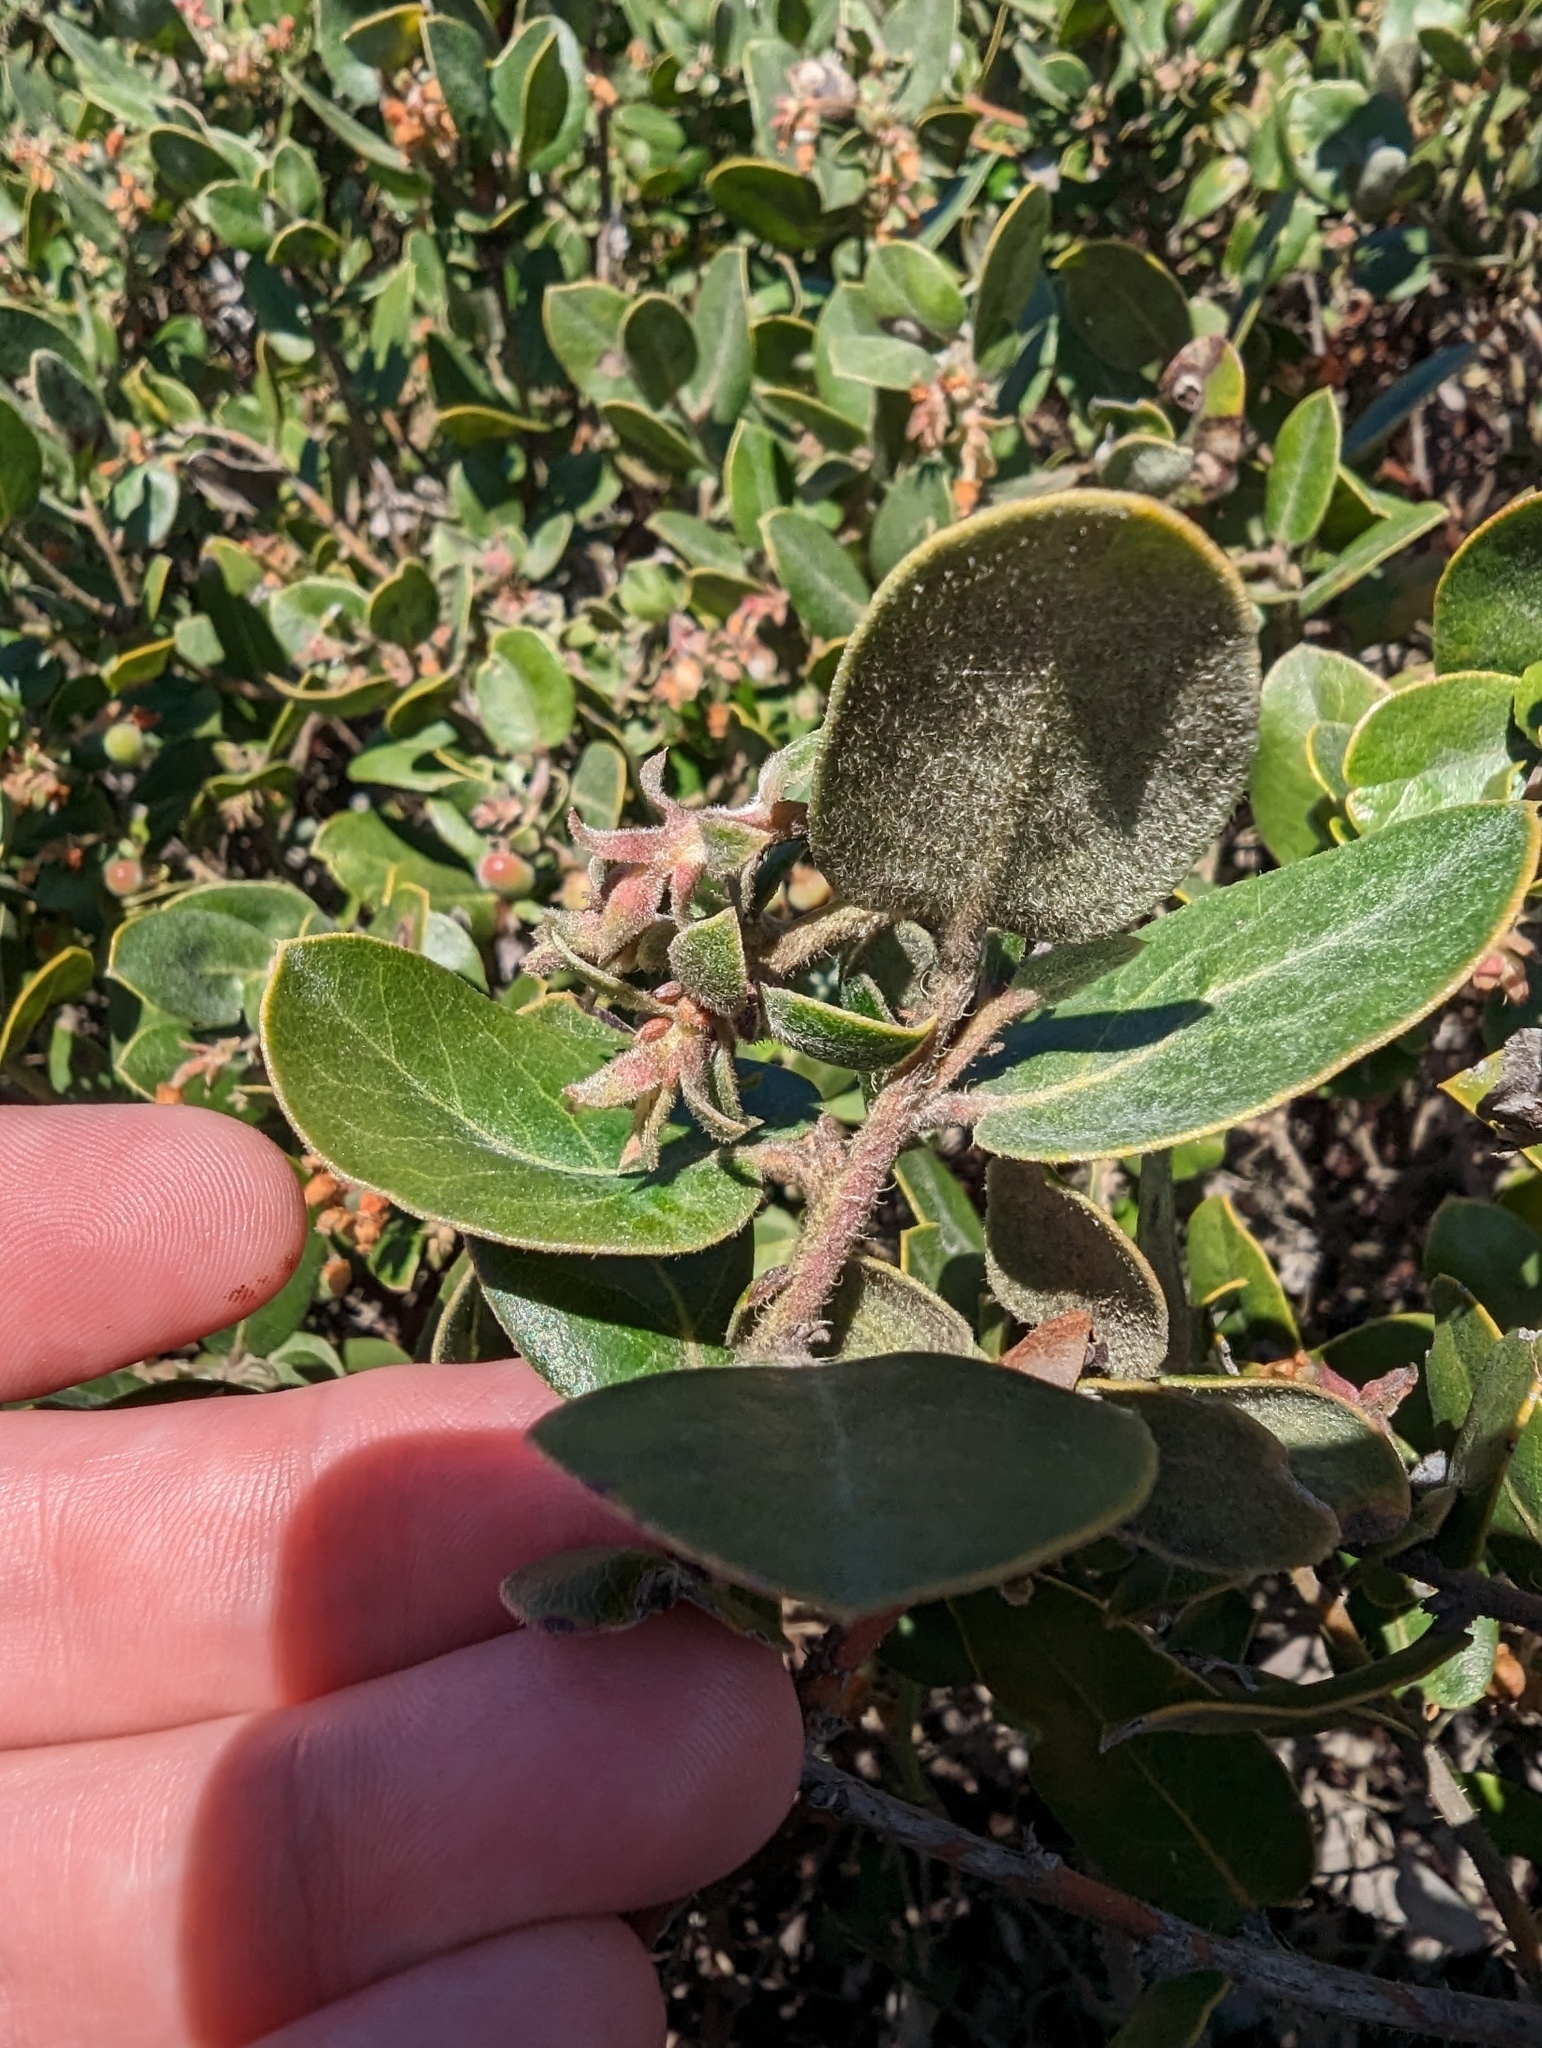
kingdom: Plantae
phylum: Tracheophyta
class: Magnoliopsida
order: Ericales
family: Ericaceae
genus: Arctostaphylos
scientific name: Arctostaphylos crustacea
